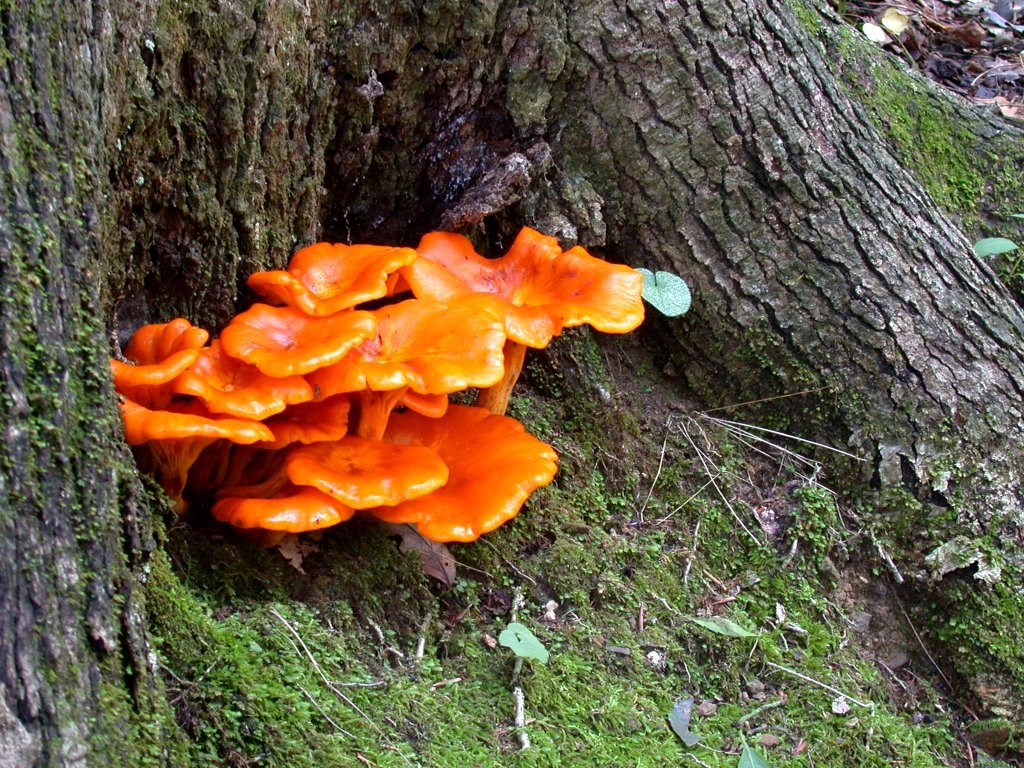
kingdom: Fungi
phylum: Basidiomycota
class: Agaricomycetes
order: Agaricales
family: Omphalotaceae
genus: Omphalotus
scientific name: Omphalotus illudens
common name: Jack o lantern
